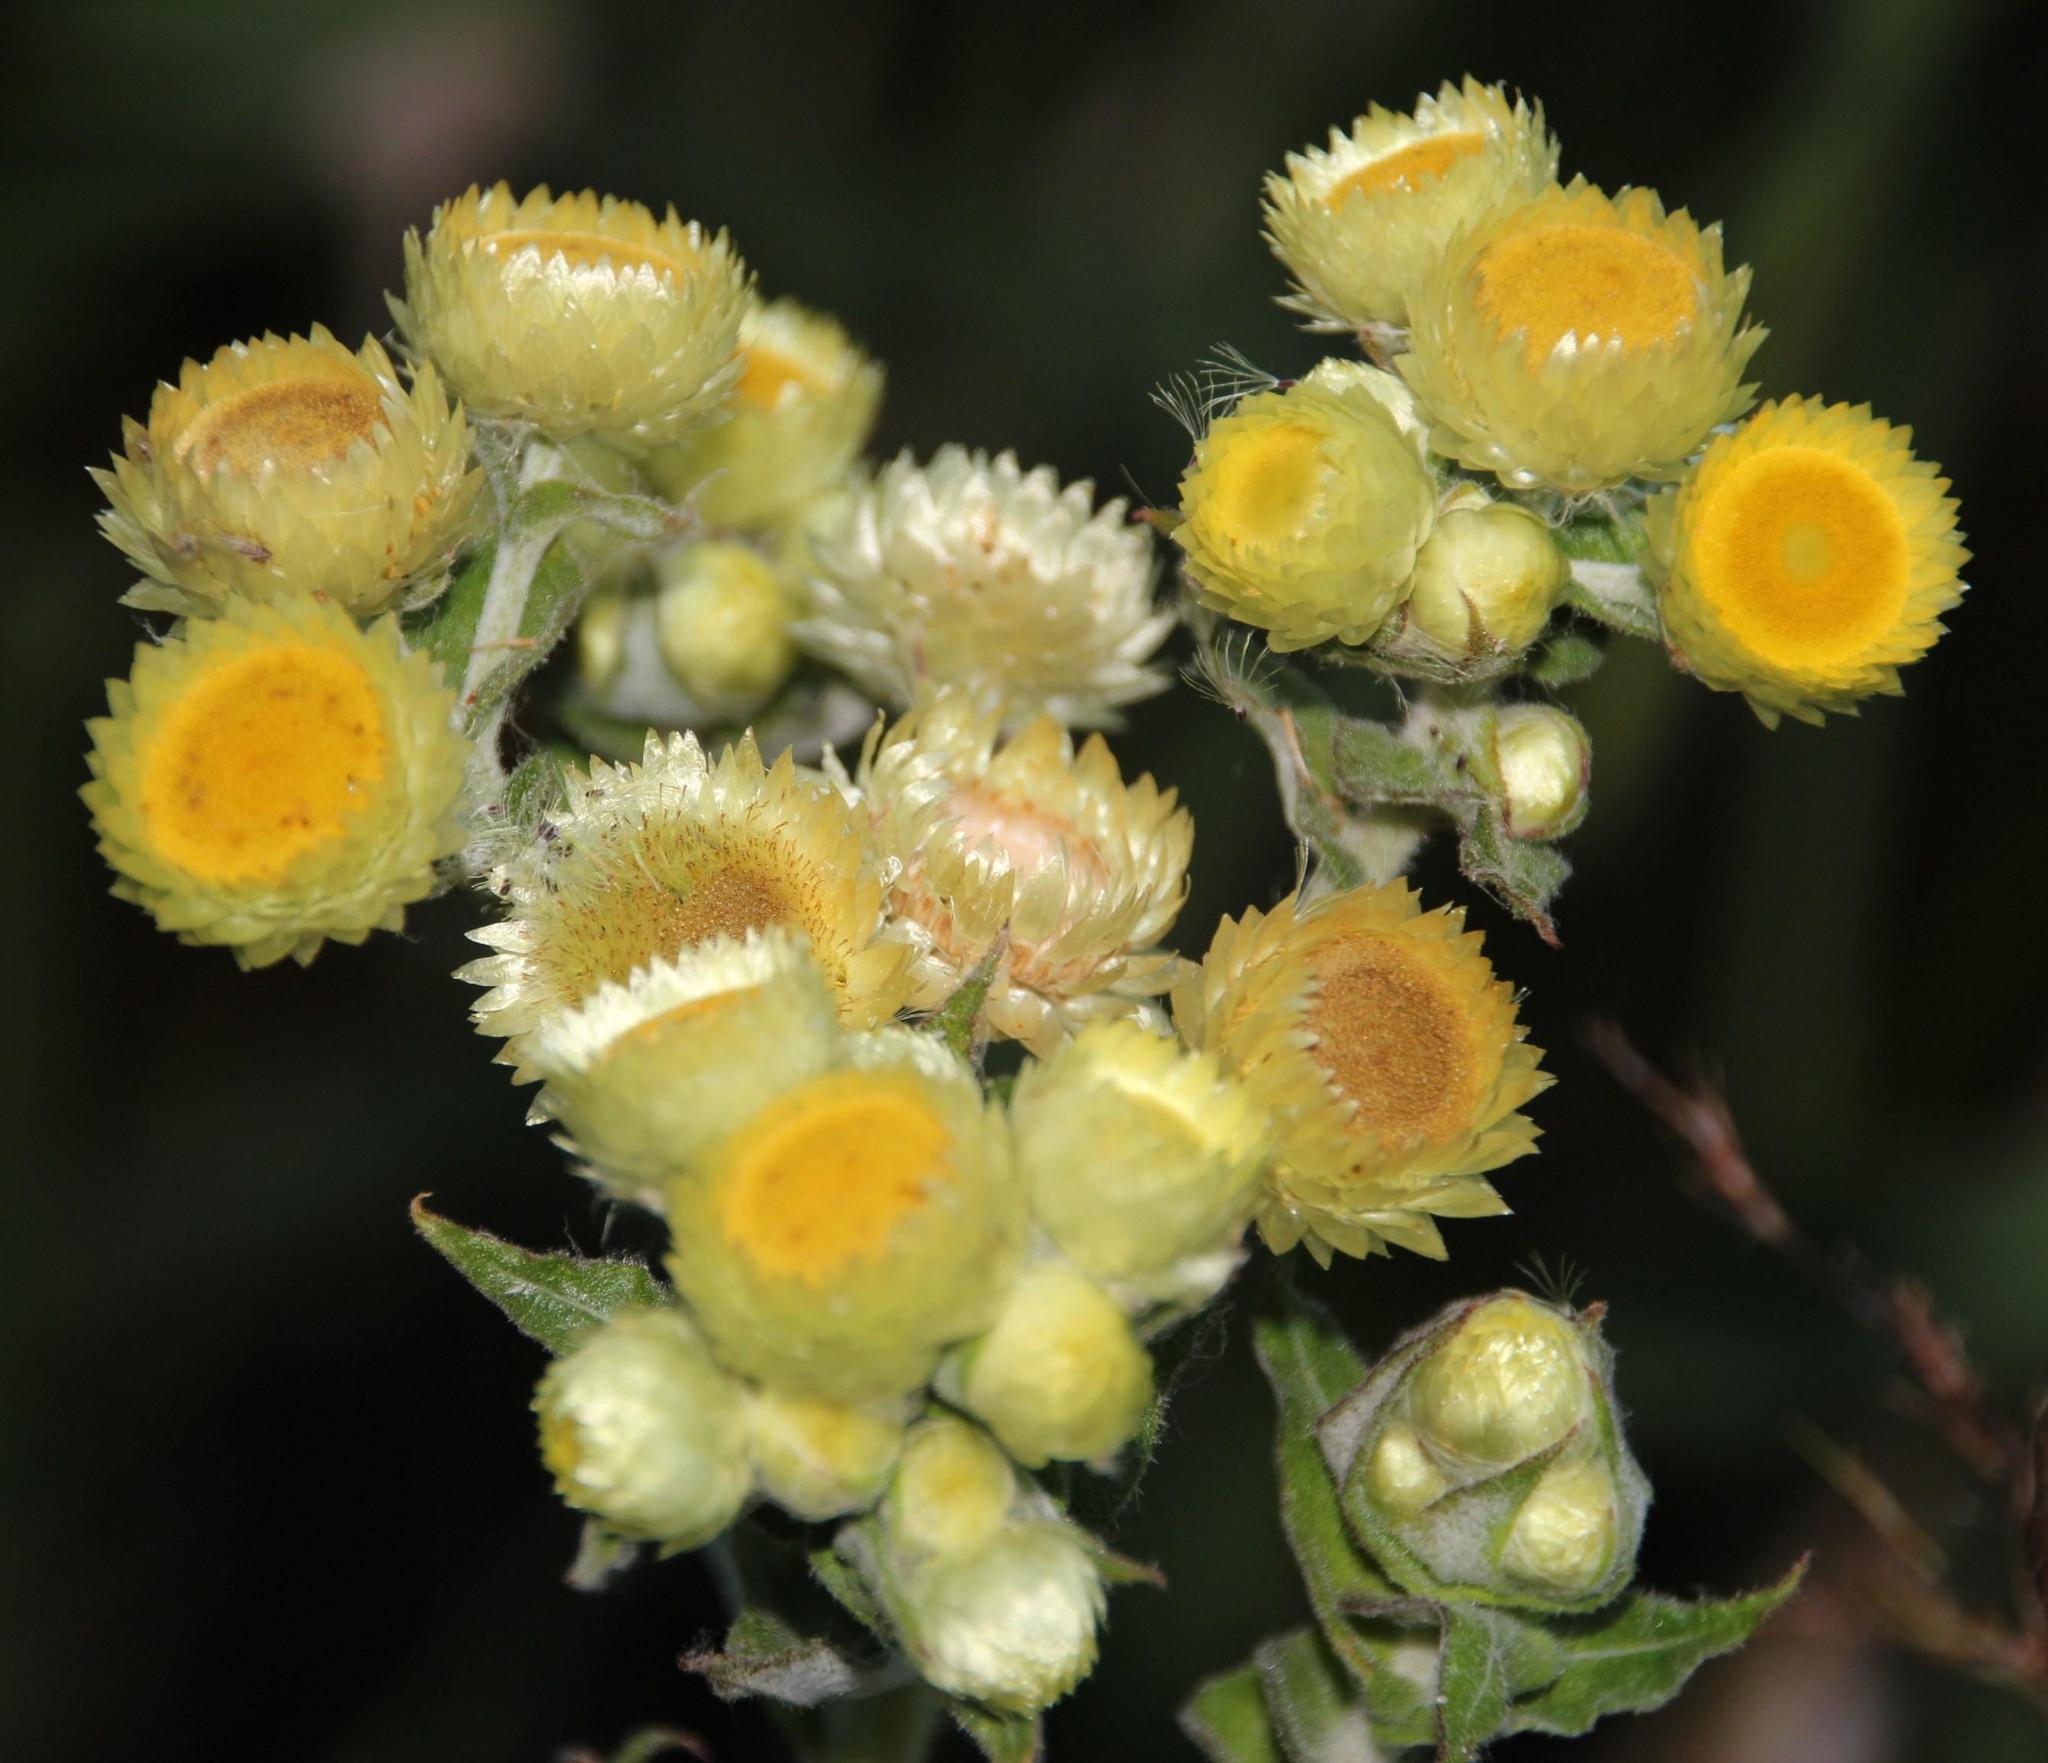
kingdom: Plantae
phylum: Tracheophyta
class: Magnoliopsida
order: Asterales
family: Asteraceae
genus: Helichrysum
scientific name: Helichrysum foetidum
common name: Stinking everlasting
